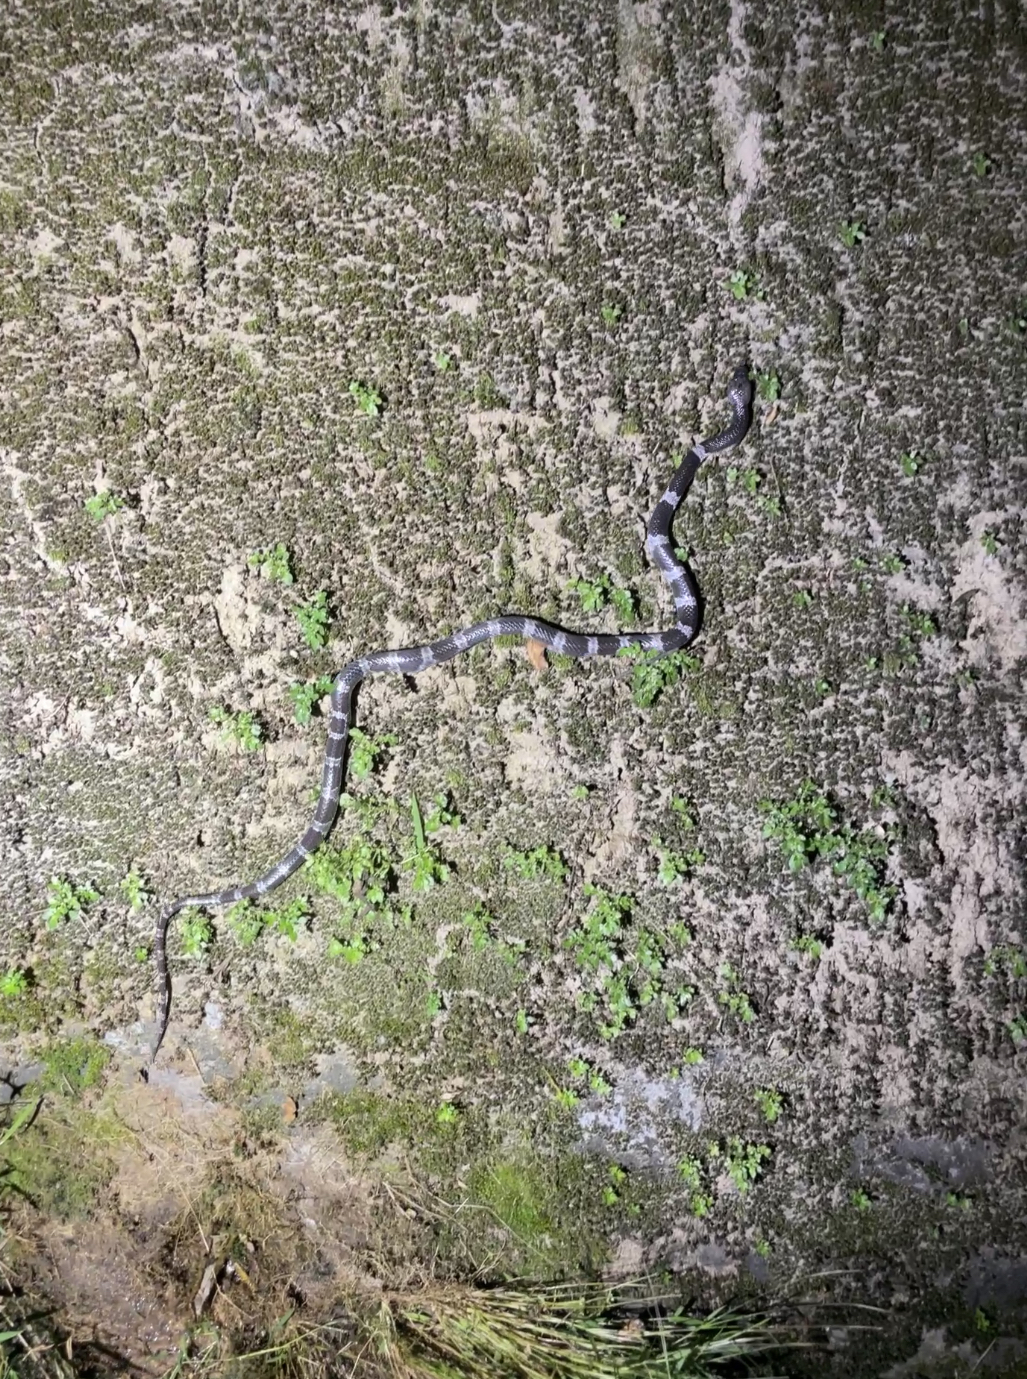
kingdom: Animalia
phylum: Chordata
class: Squamata
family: Colubridae
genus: Lycodon
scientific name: Lycodon futsingensis
